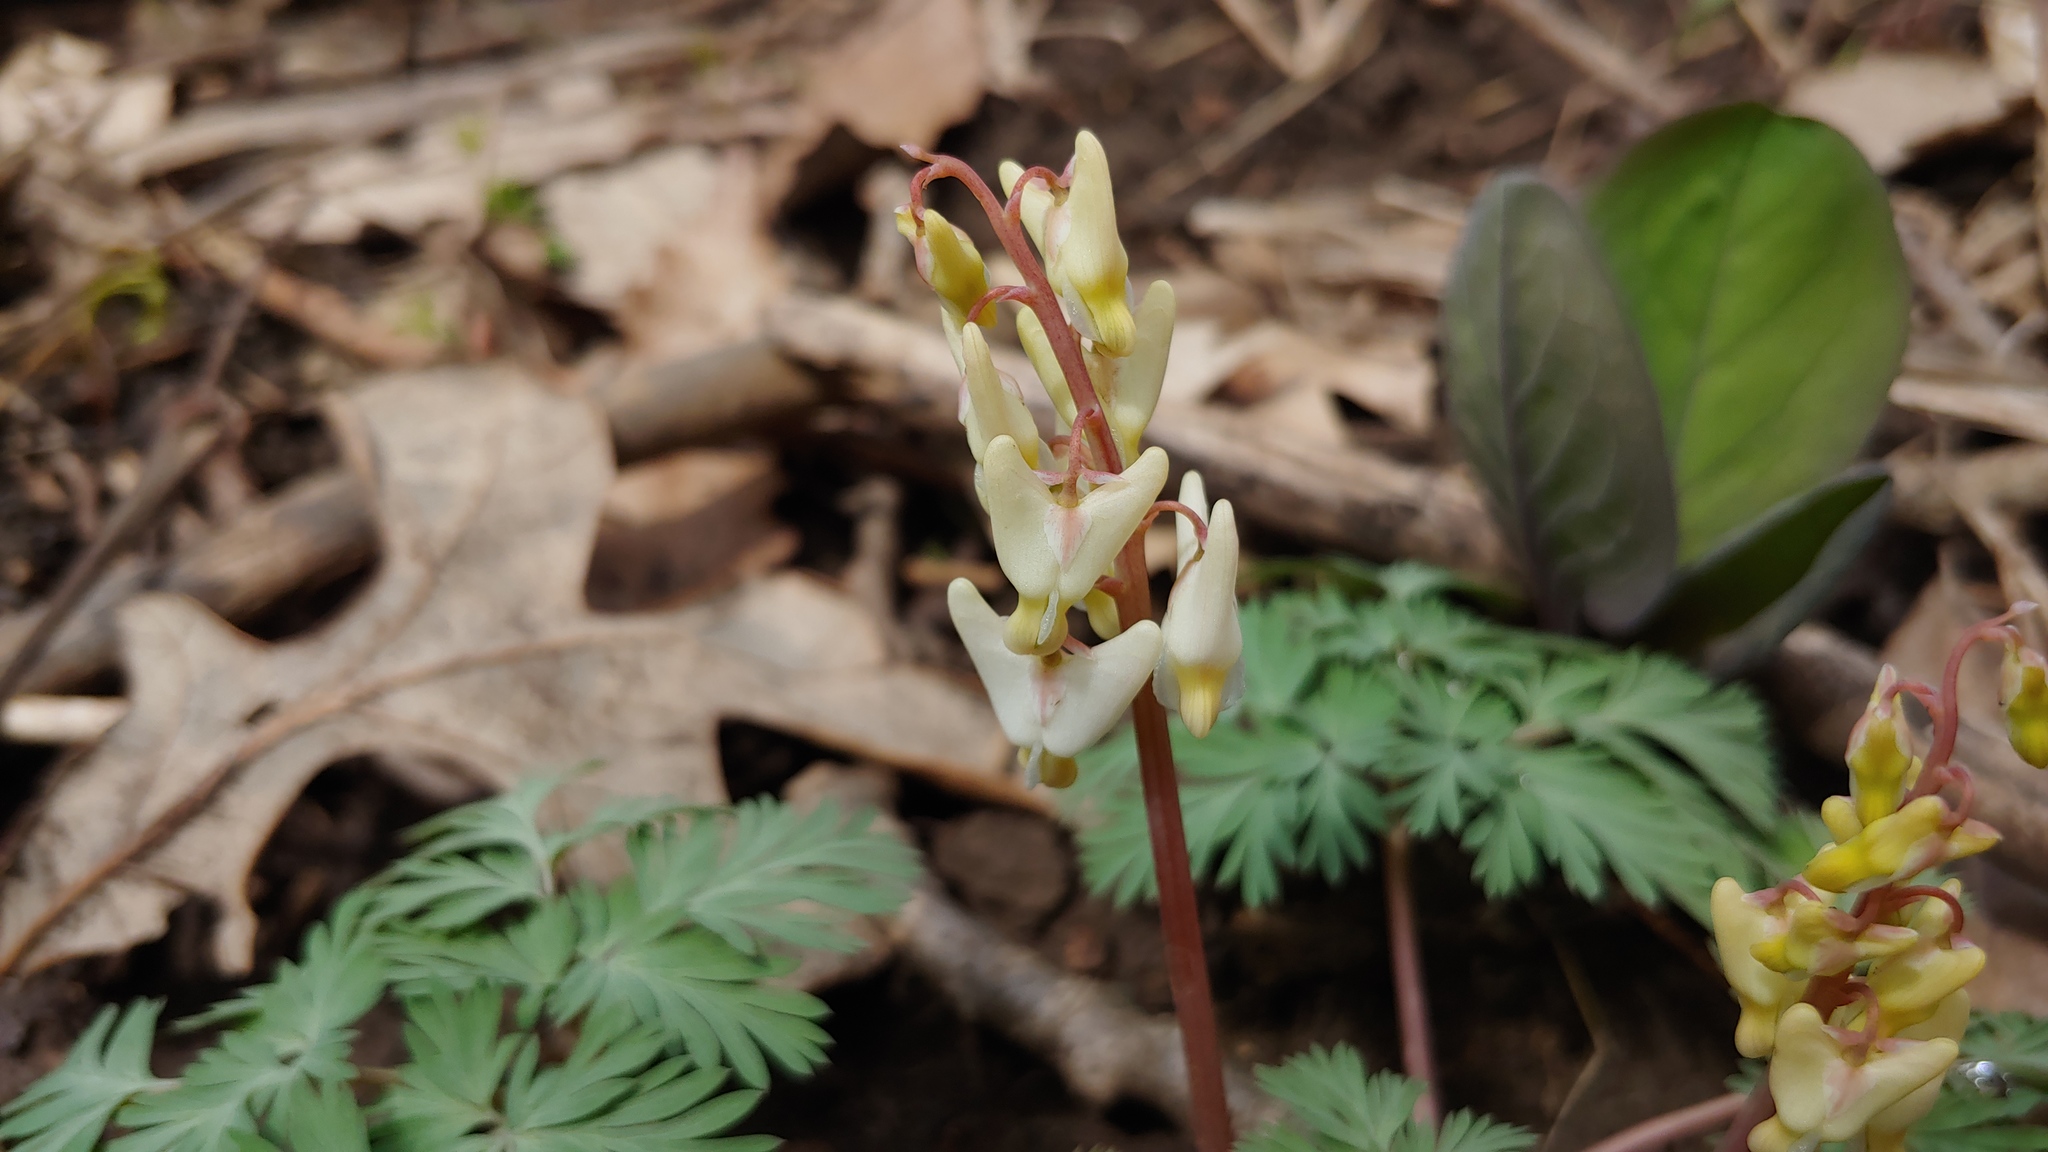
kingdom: Plantae
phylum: Tracheophyta
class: Magnoliopsida
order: Ranunculales
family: Papaveraceae
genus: Dicentra
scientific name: Dicentra cucullaria
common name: Dutchman's breeches
